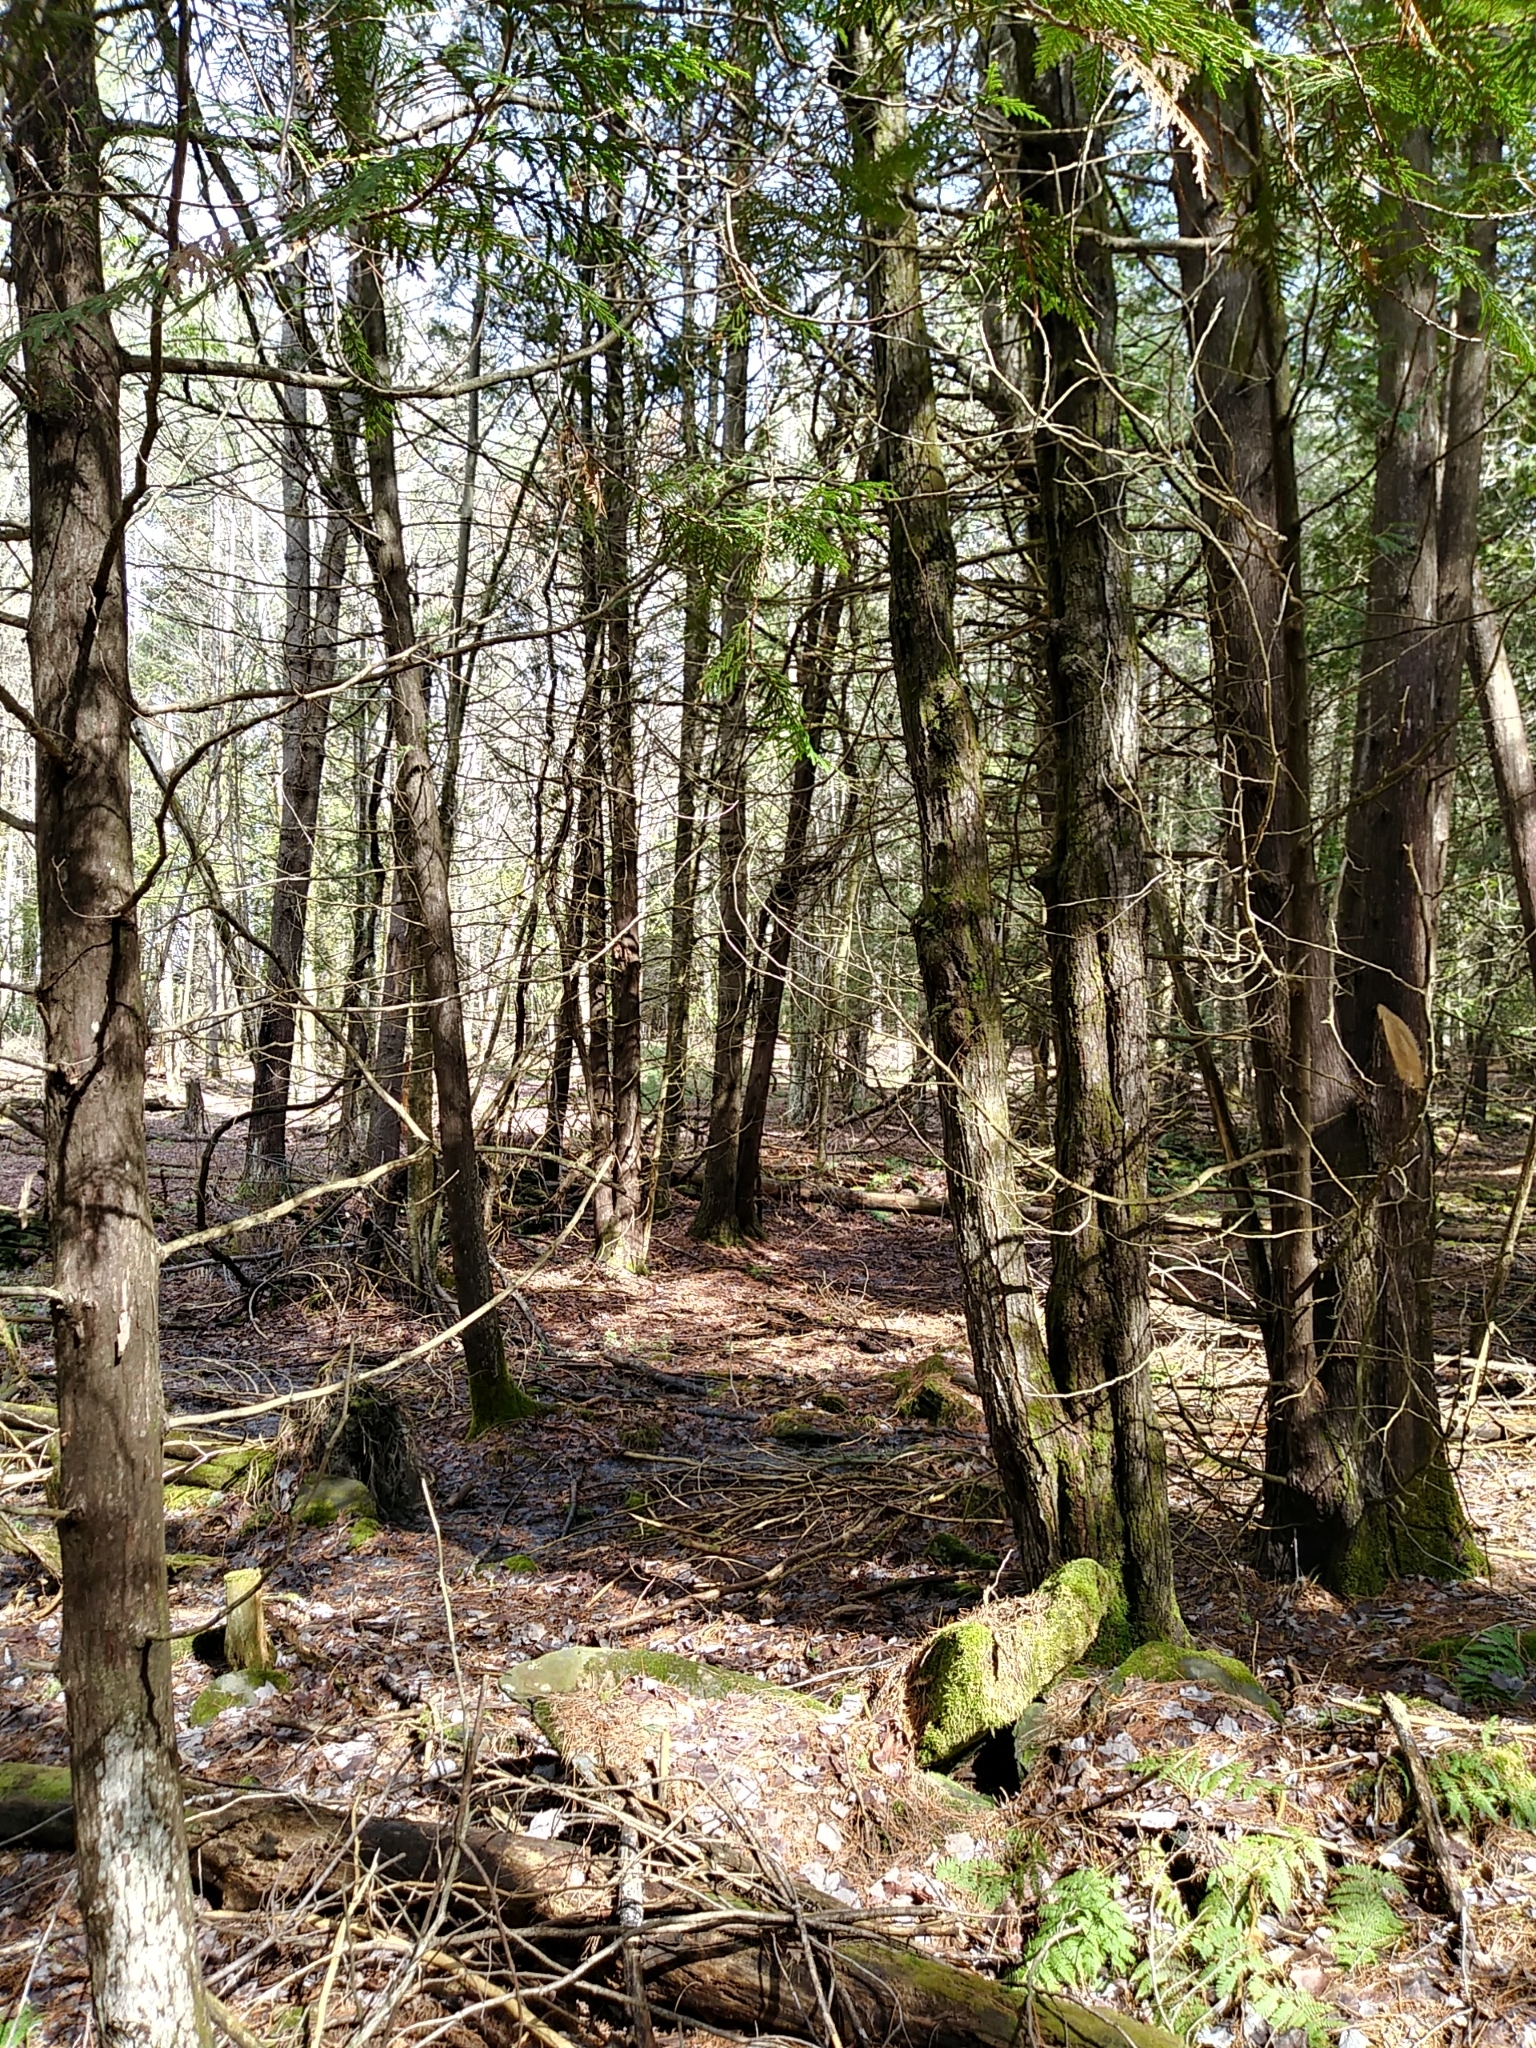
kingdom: Plantae
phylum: Tracheophyta
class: Pinopsida
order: Pinales
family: Cupressaceae
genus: Thuja
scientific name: Thuja occidentalis
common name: Northern white-cedar
